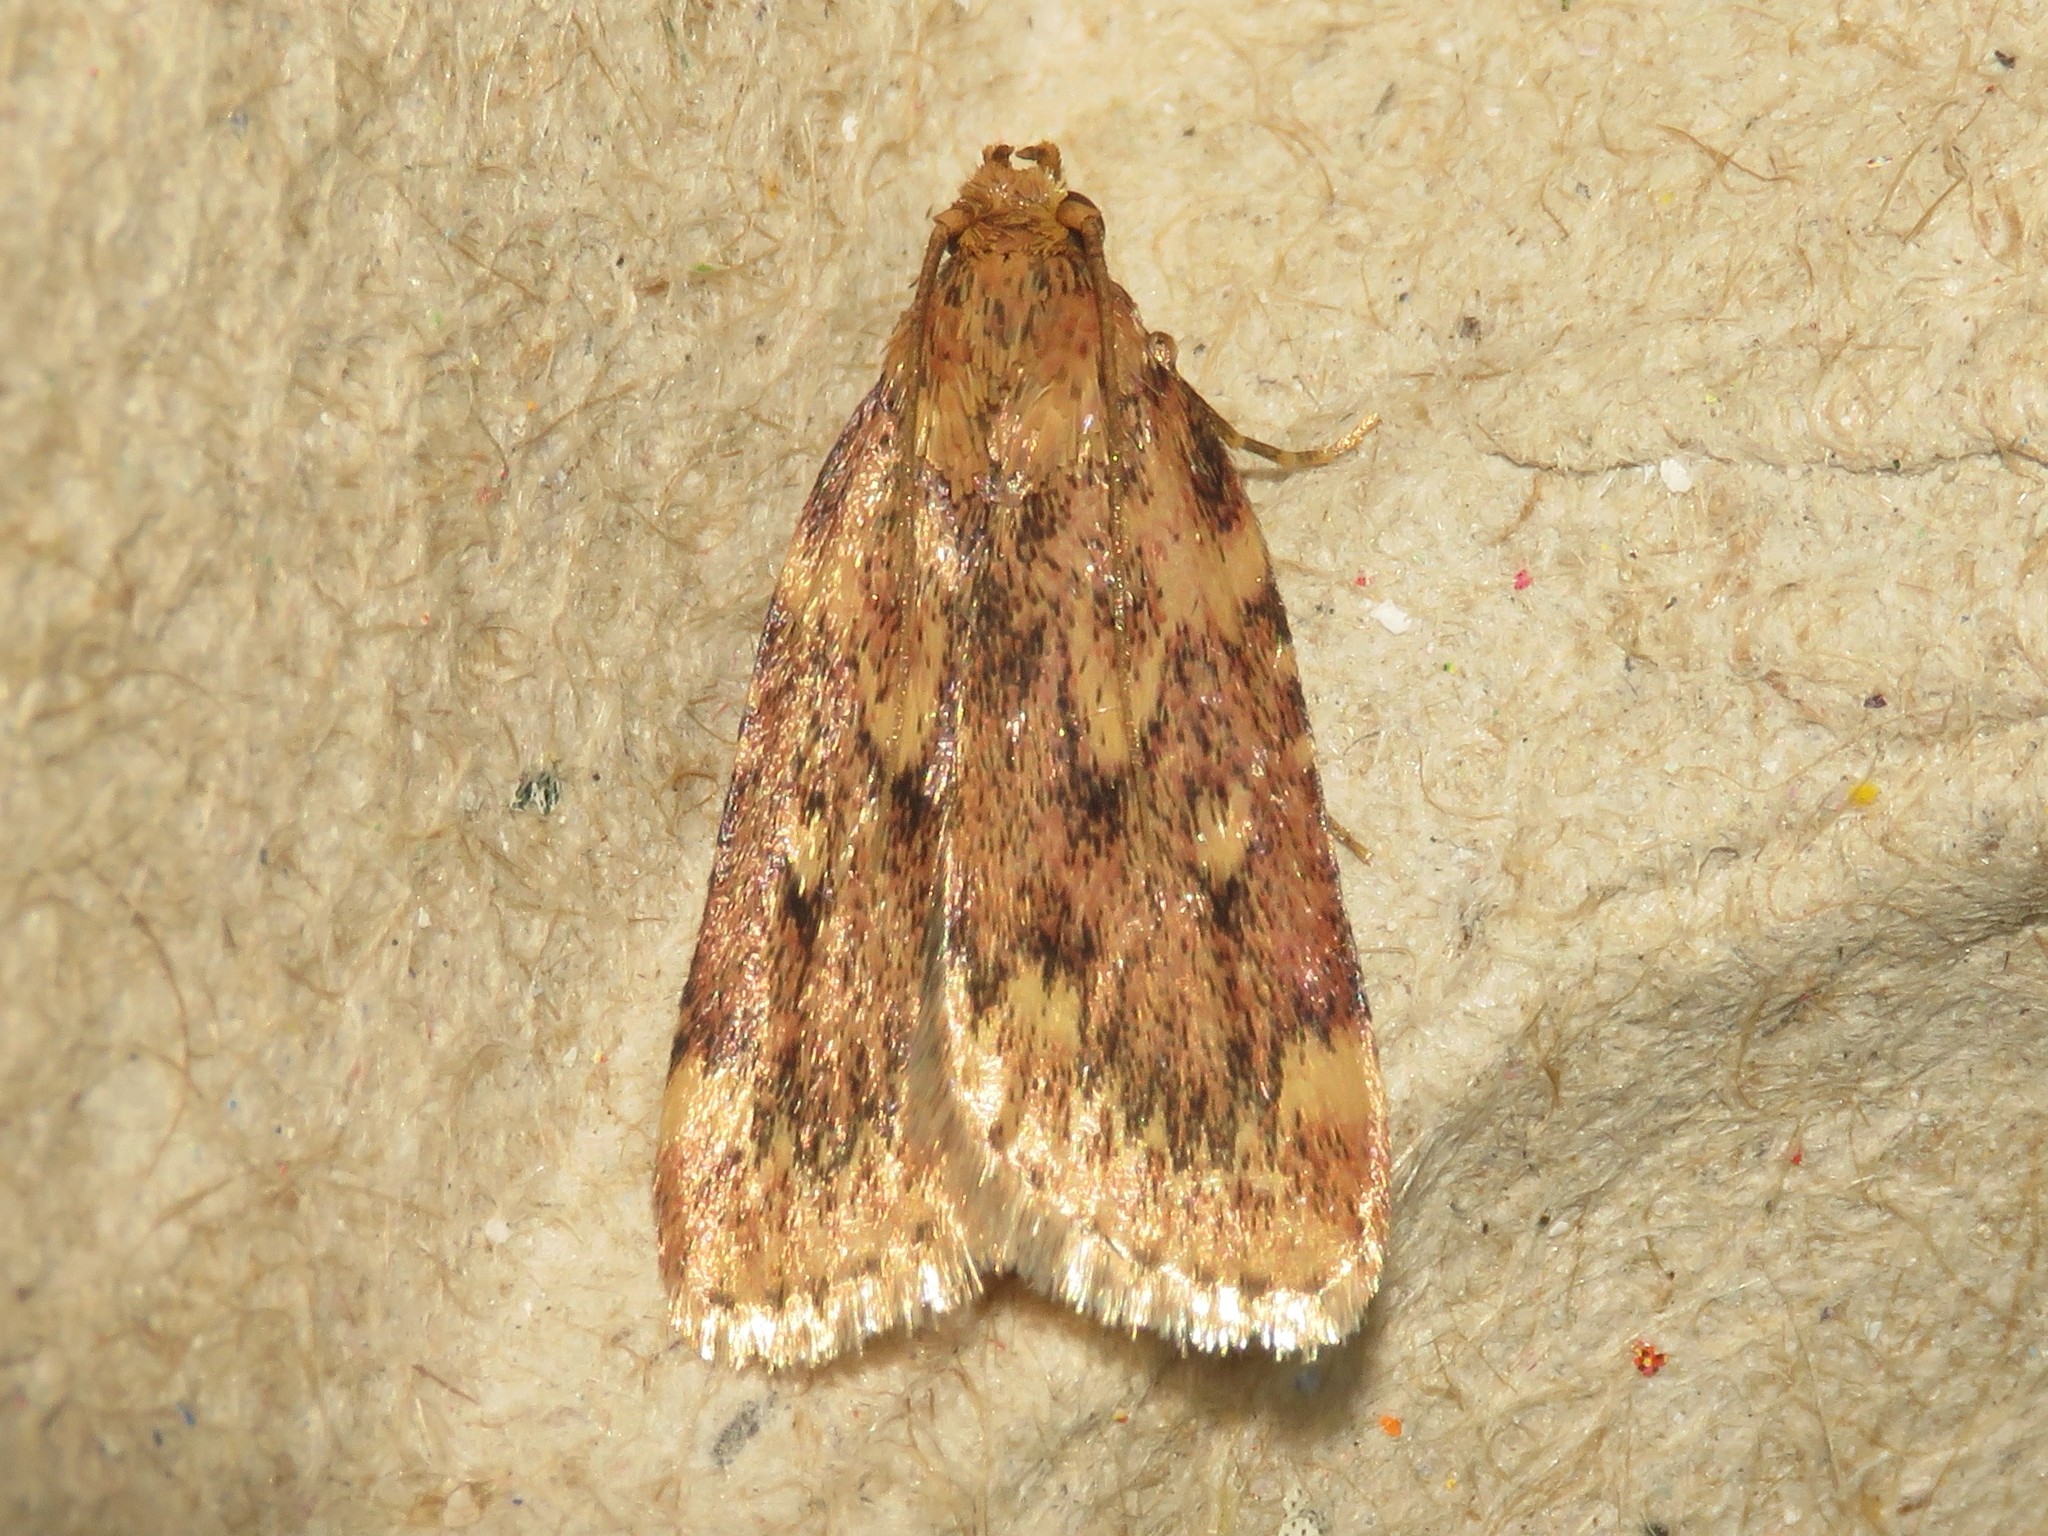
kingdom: Animalia
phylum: Arthropoda
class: Insecta
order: Lepidoptera
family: Pyralidae
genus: Aglossa
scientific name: Aglossa cuprina
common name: Grease moth
